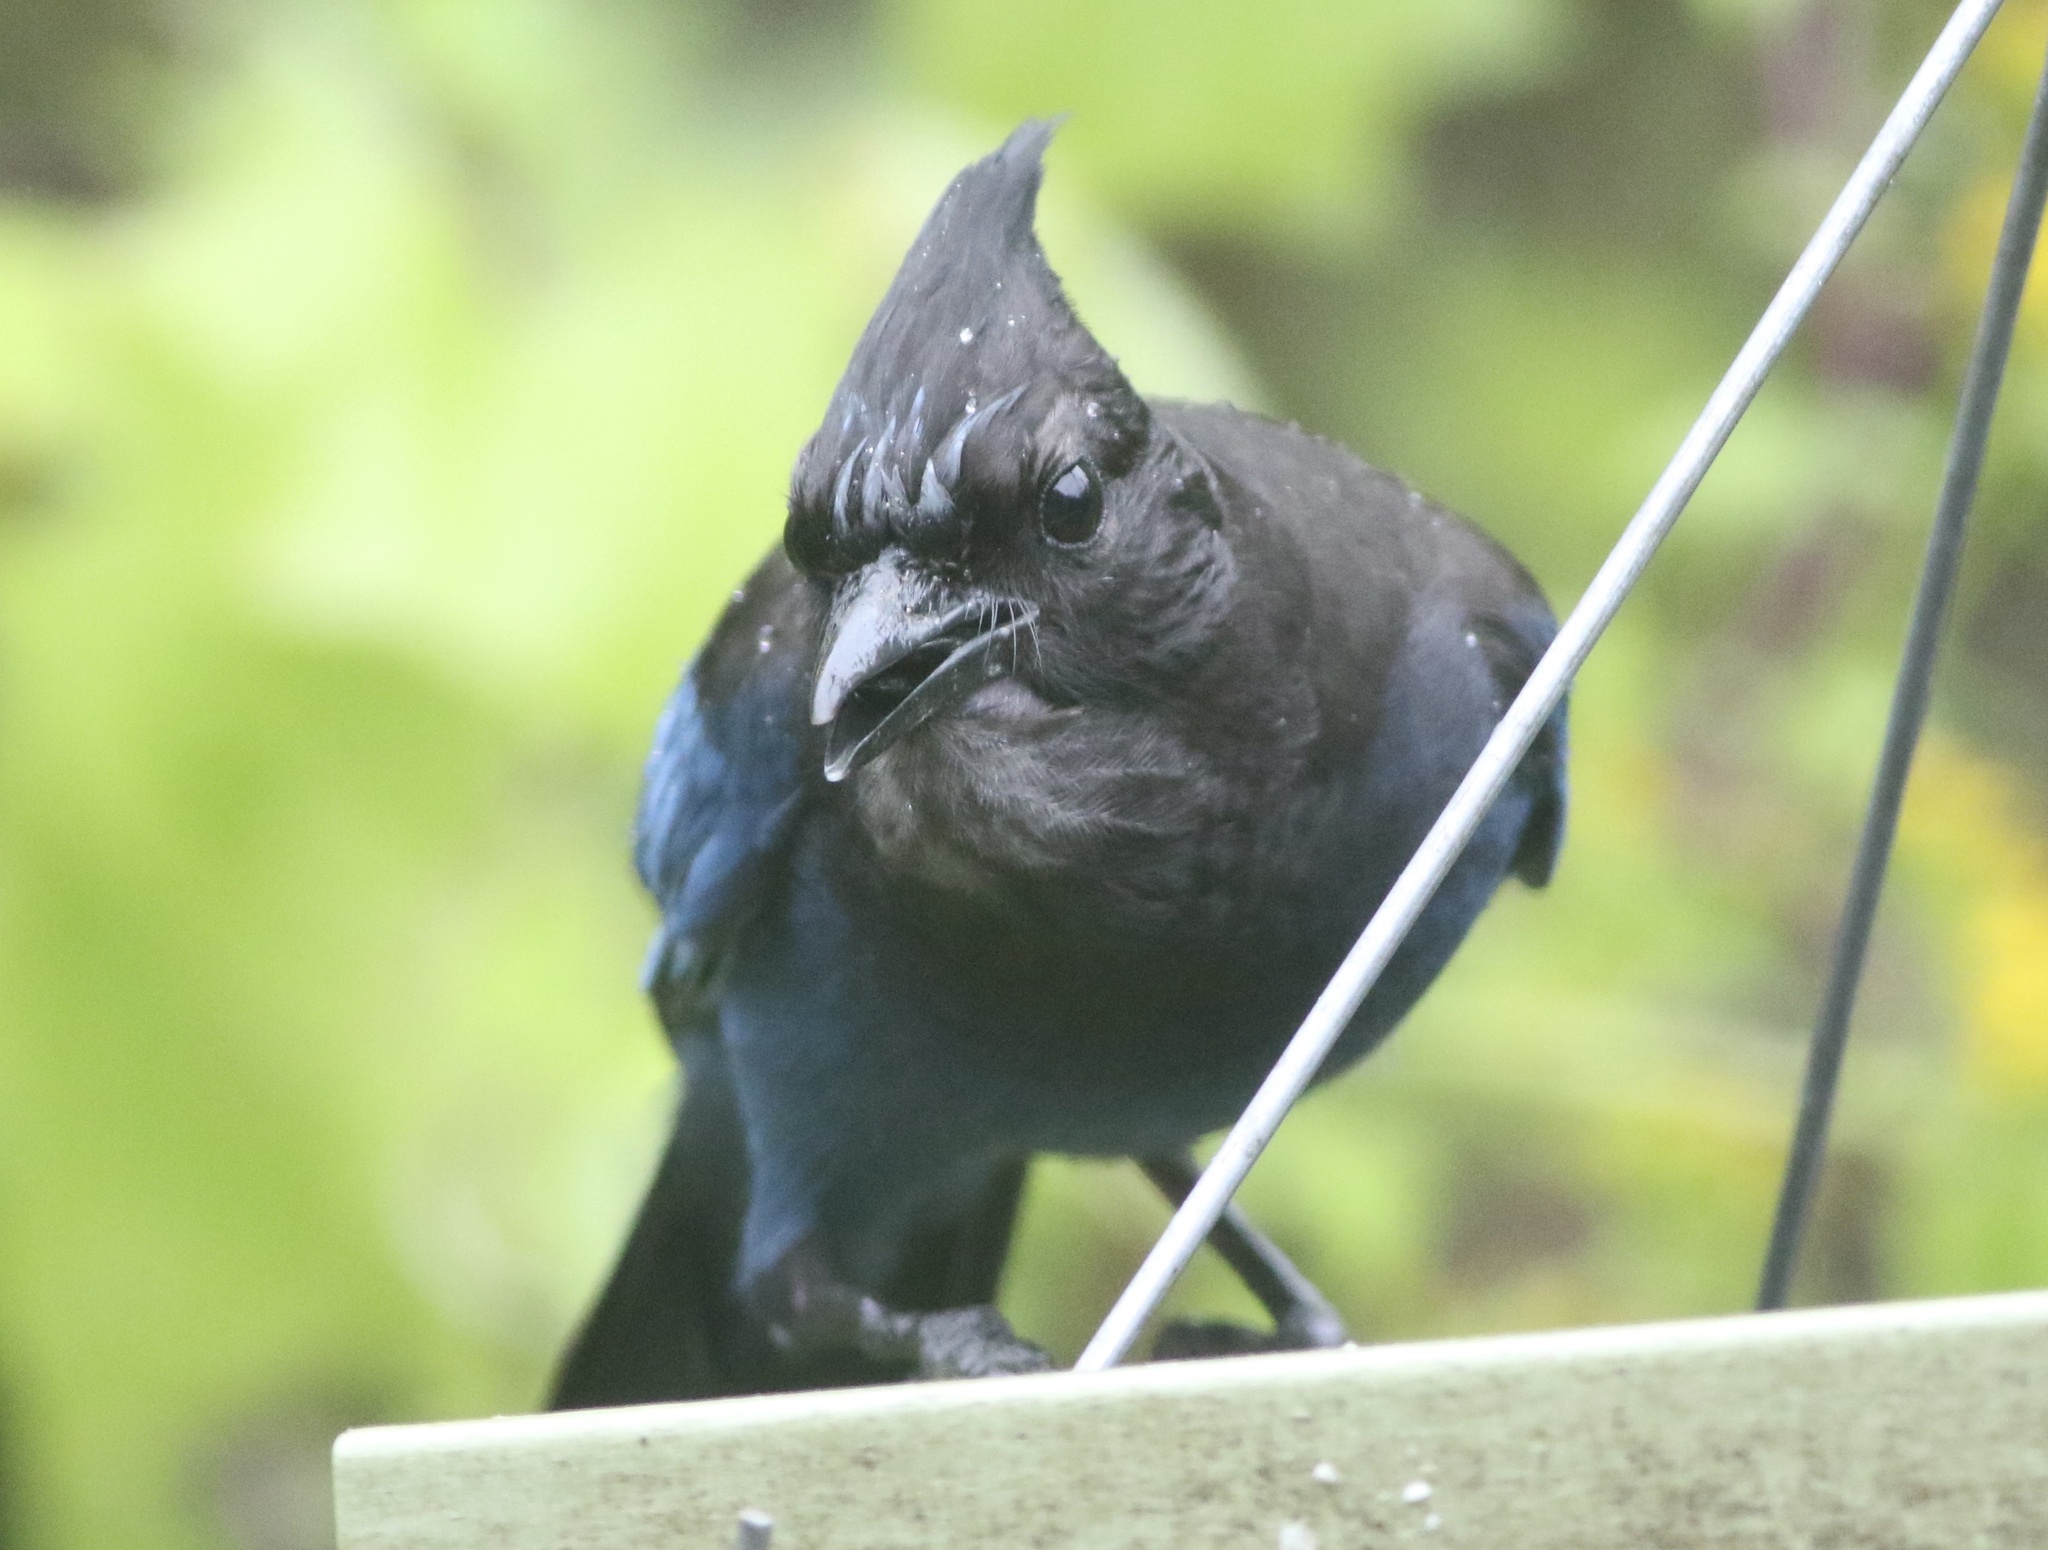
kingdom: Animalia
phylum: Chordata
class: Aves
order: Passeriformes
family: Corvidae
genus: Cyanocitta
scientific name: Cyanocitta stelleri
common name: Steller's jay
